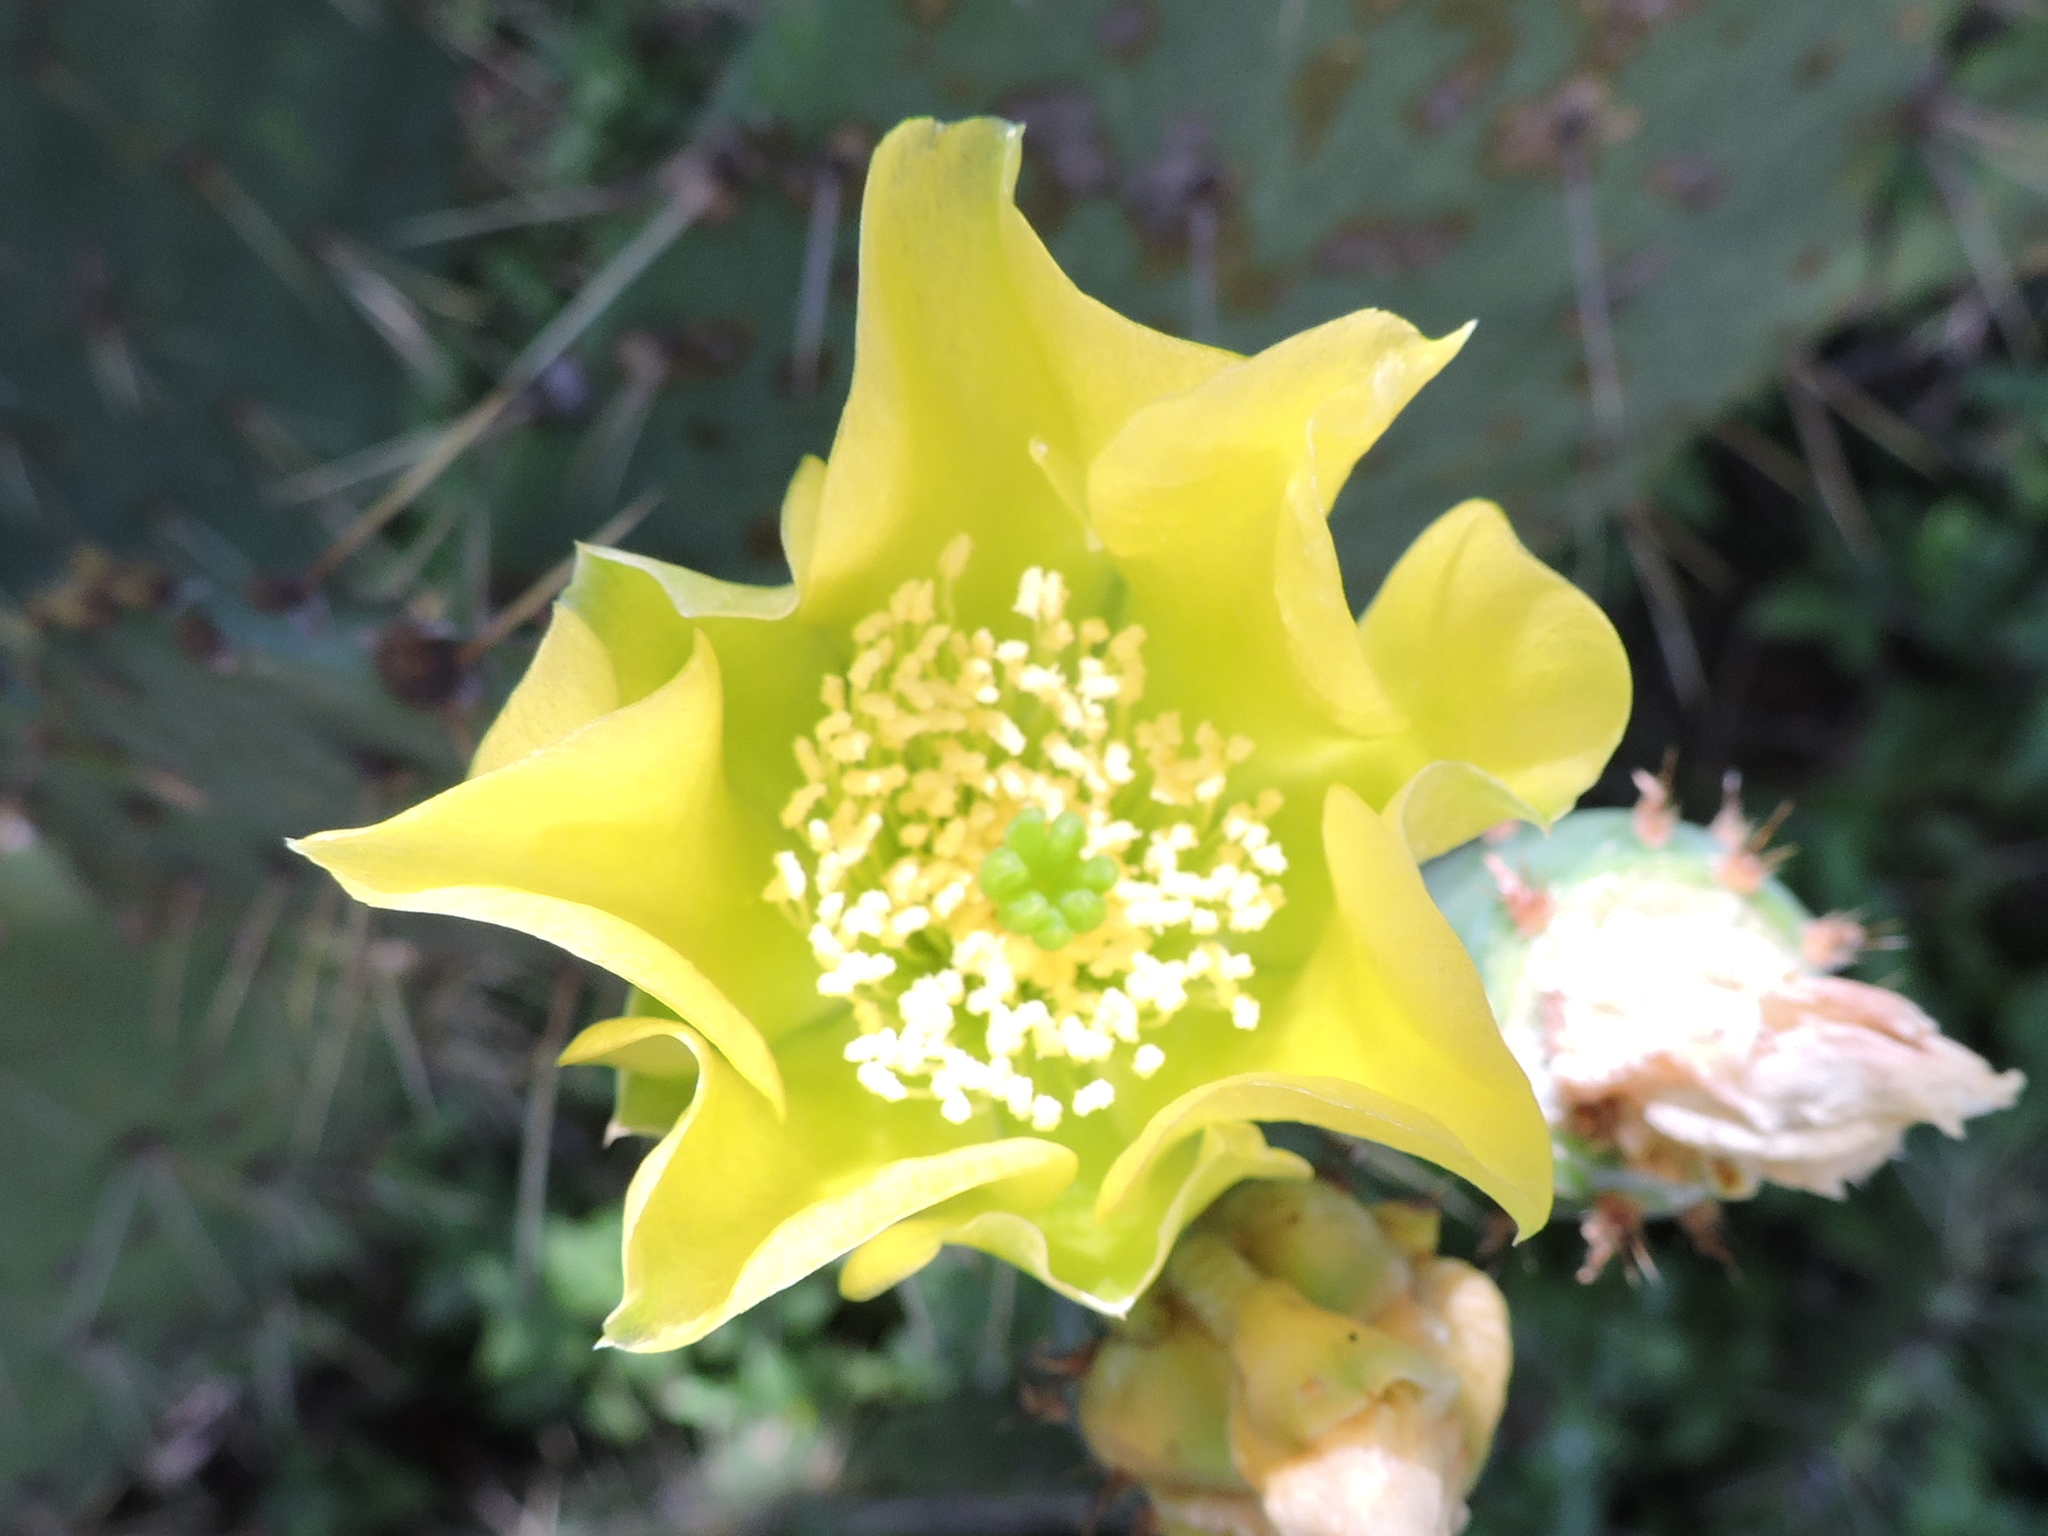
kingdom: Plantae
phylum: Tracheophyta
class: Magnoliopsida
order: Caryophyllales
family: Cactaceae
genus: Opuntia
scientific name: Opuntia engelmannii
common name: Cactus-apple
